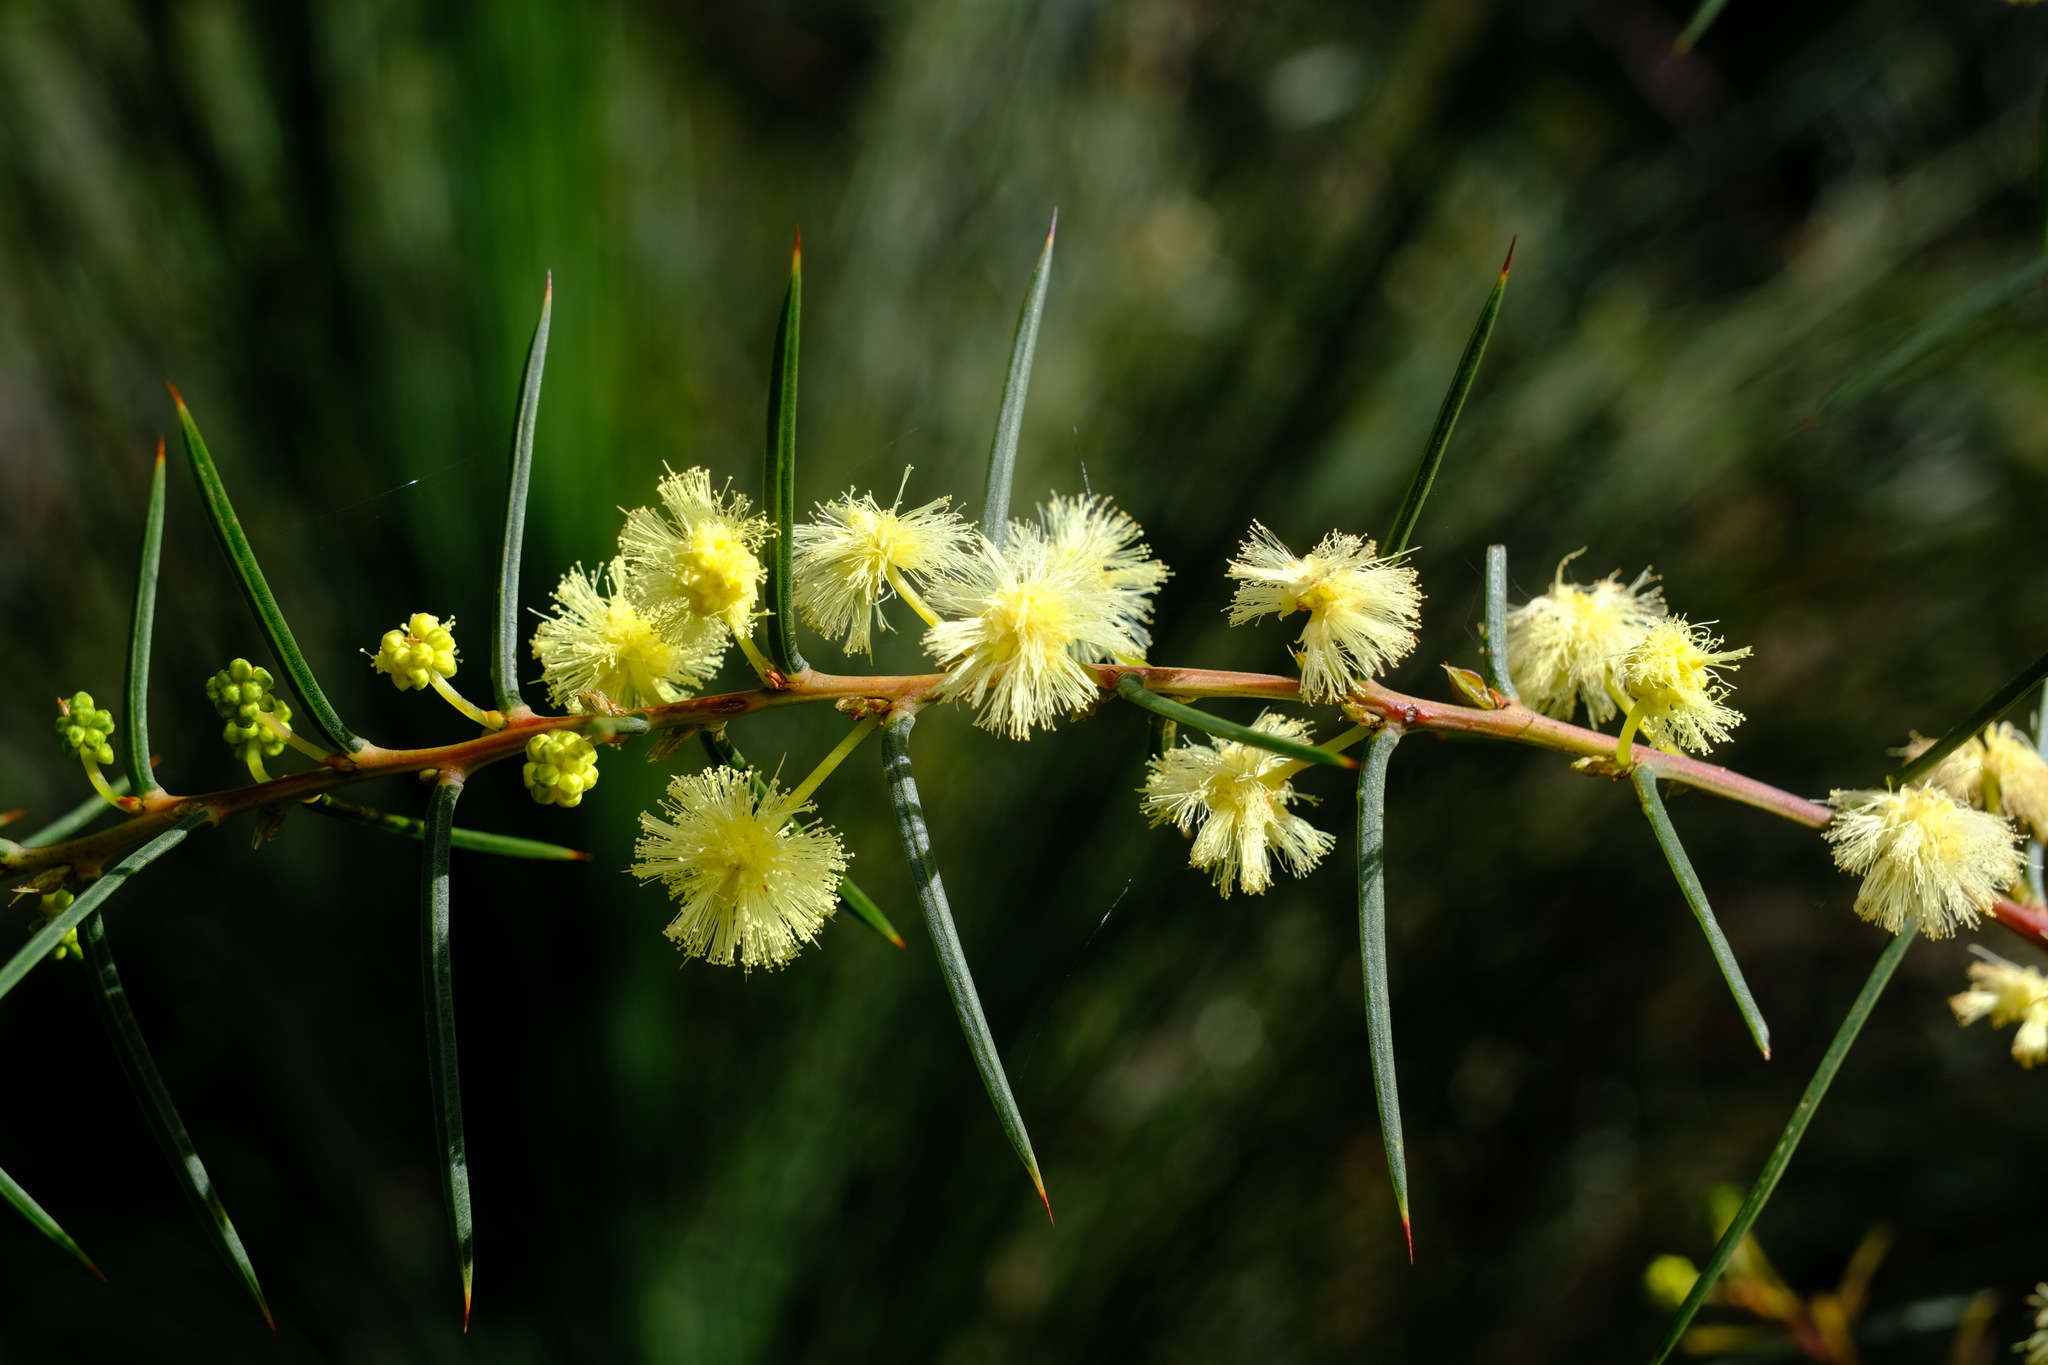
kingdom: Plantae
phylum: Tracheophyta
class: Magnoliopsida
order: Fabales
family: Fabaceae
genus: Acacia
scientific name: Acacia genistifolia
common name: Early wattle
